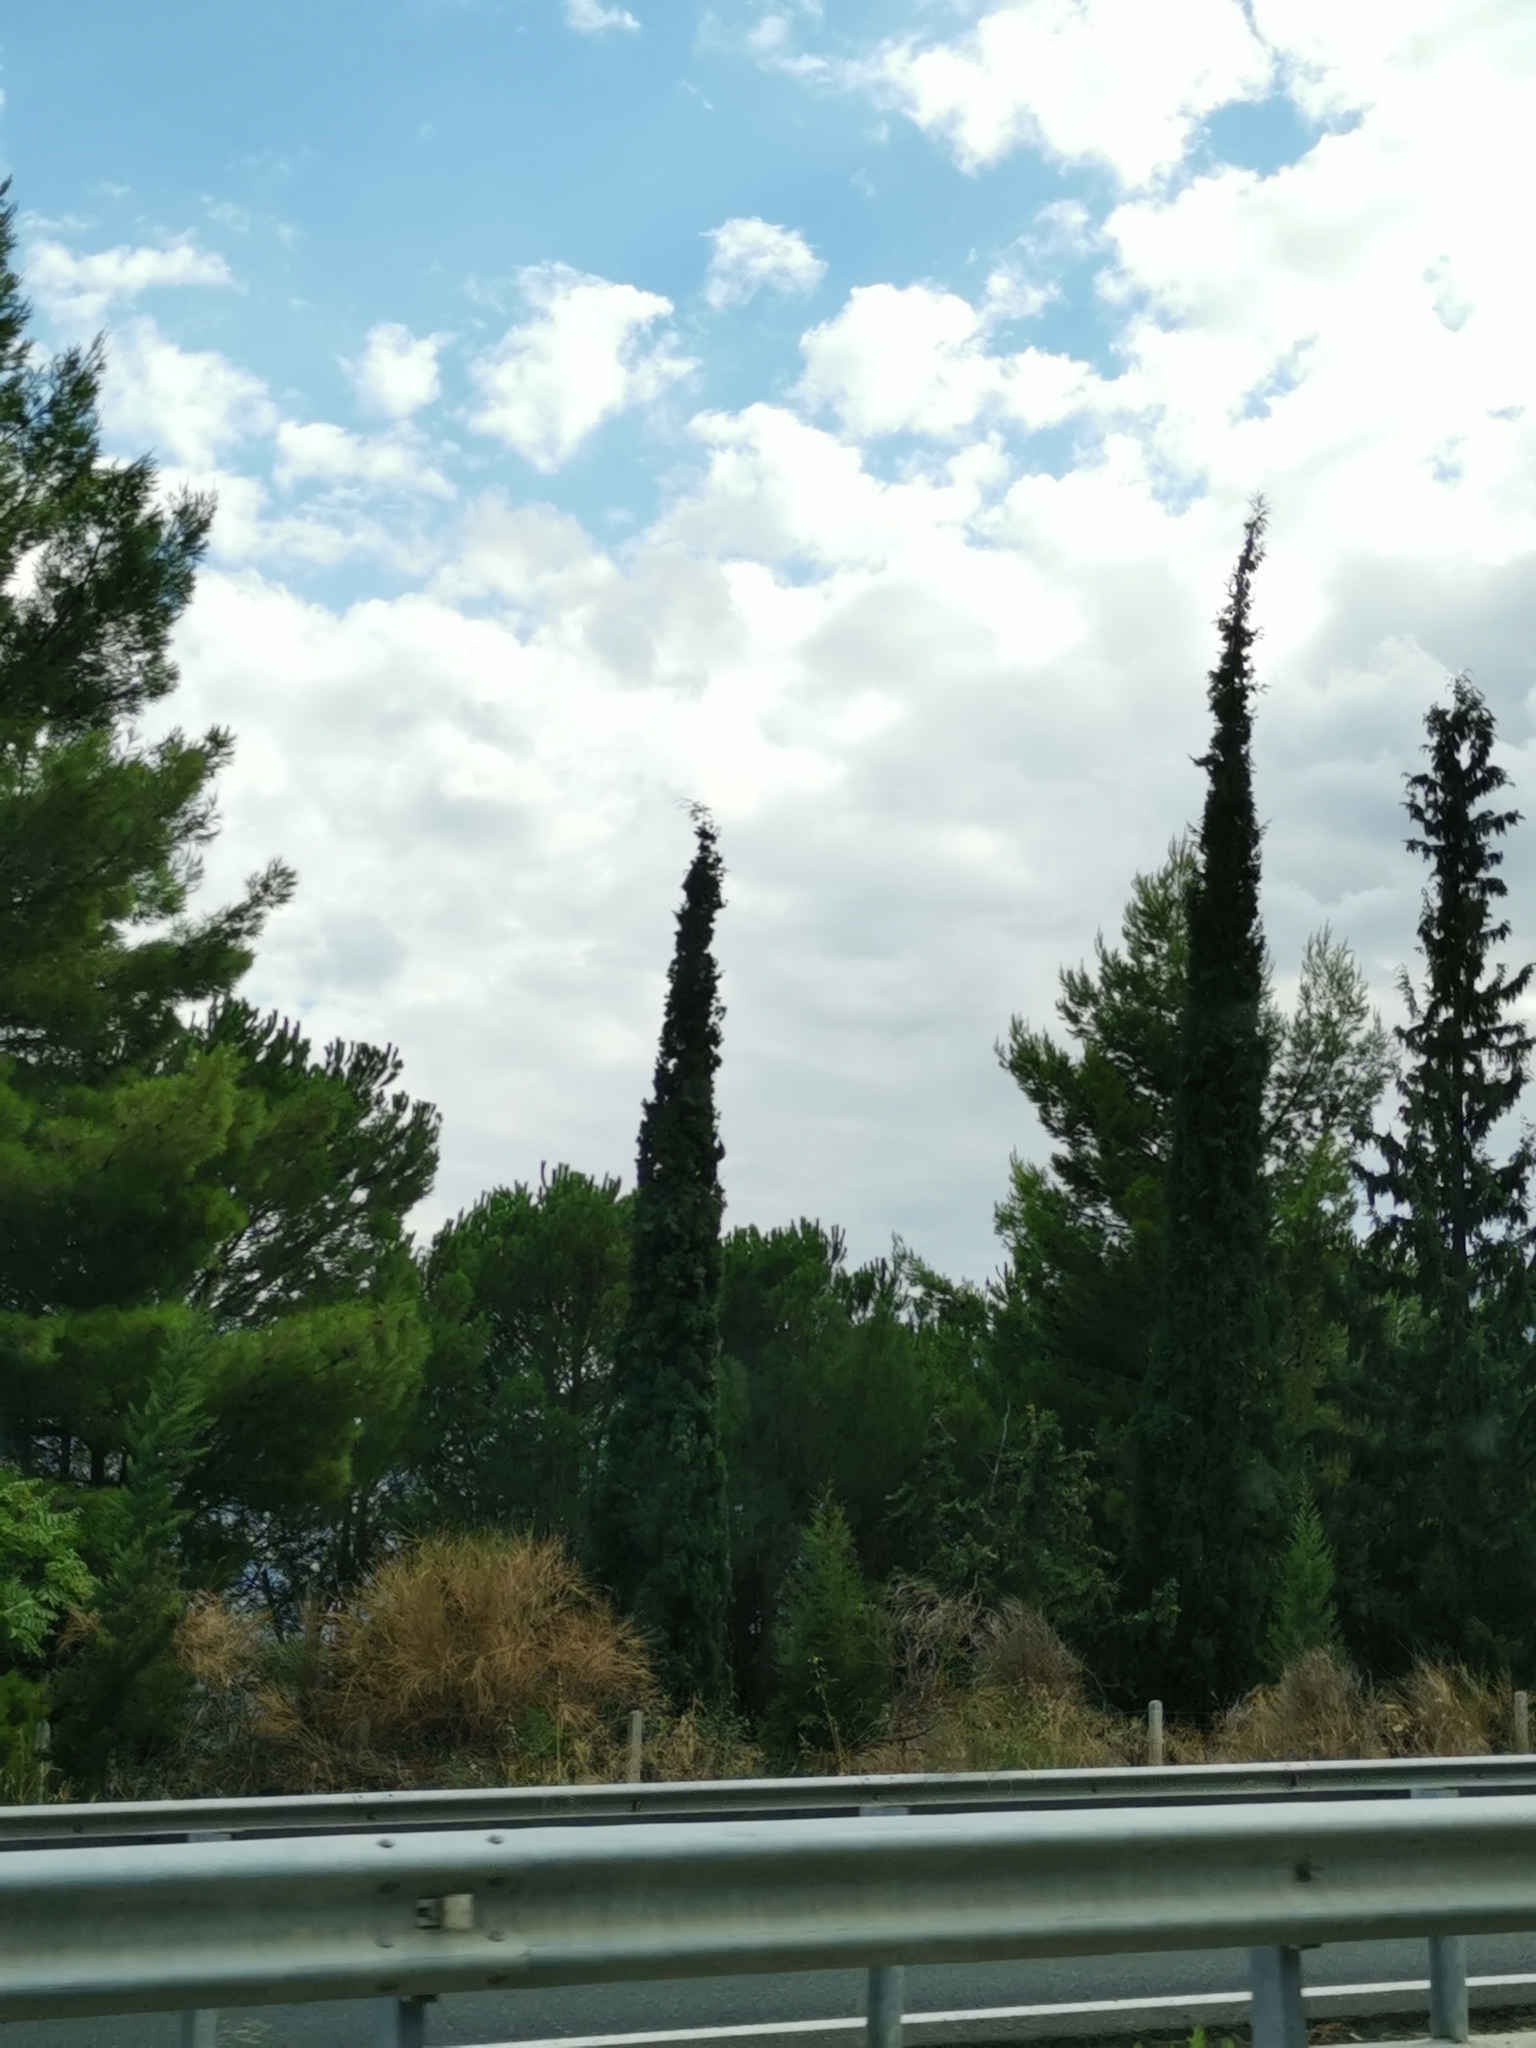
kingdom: Plantae
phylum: Tracheophyta
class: Pinopsida
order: Pinales
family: Cupressaceae
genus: Cupressus
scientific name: Cupressus sempervirens
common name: Italian cypress
